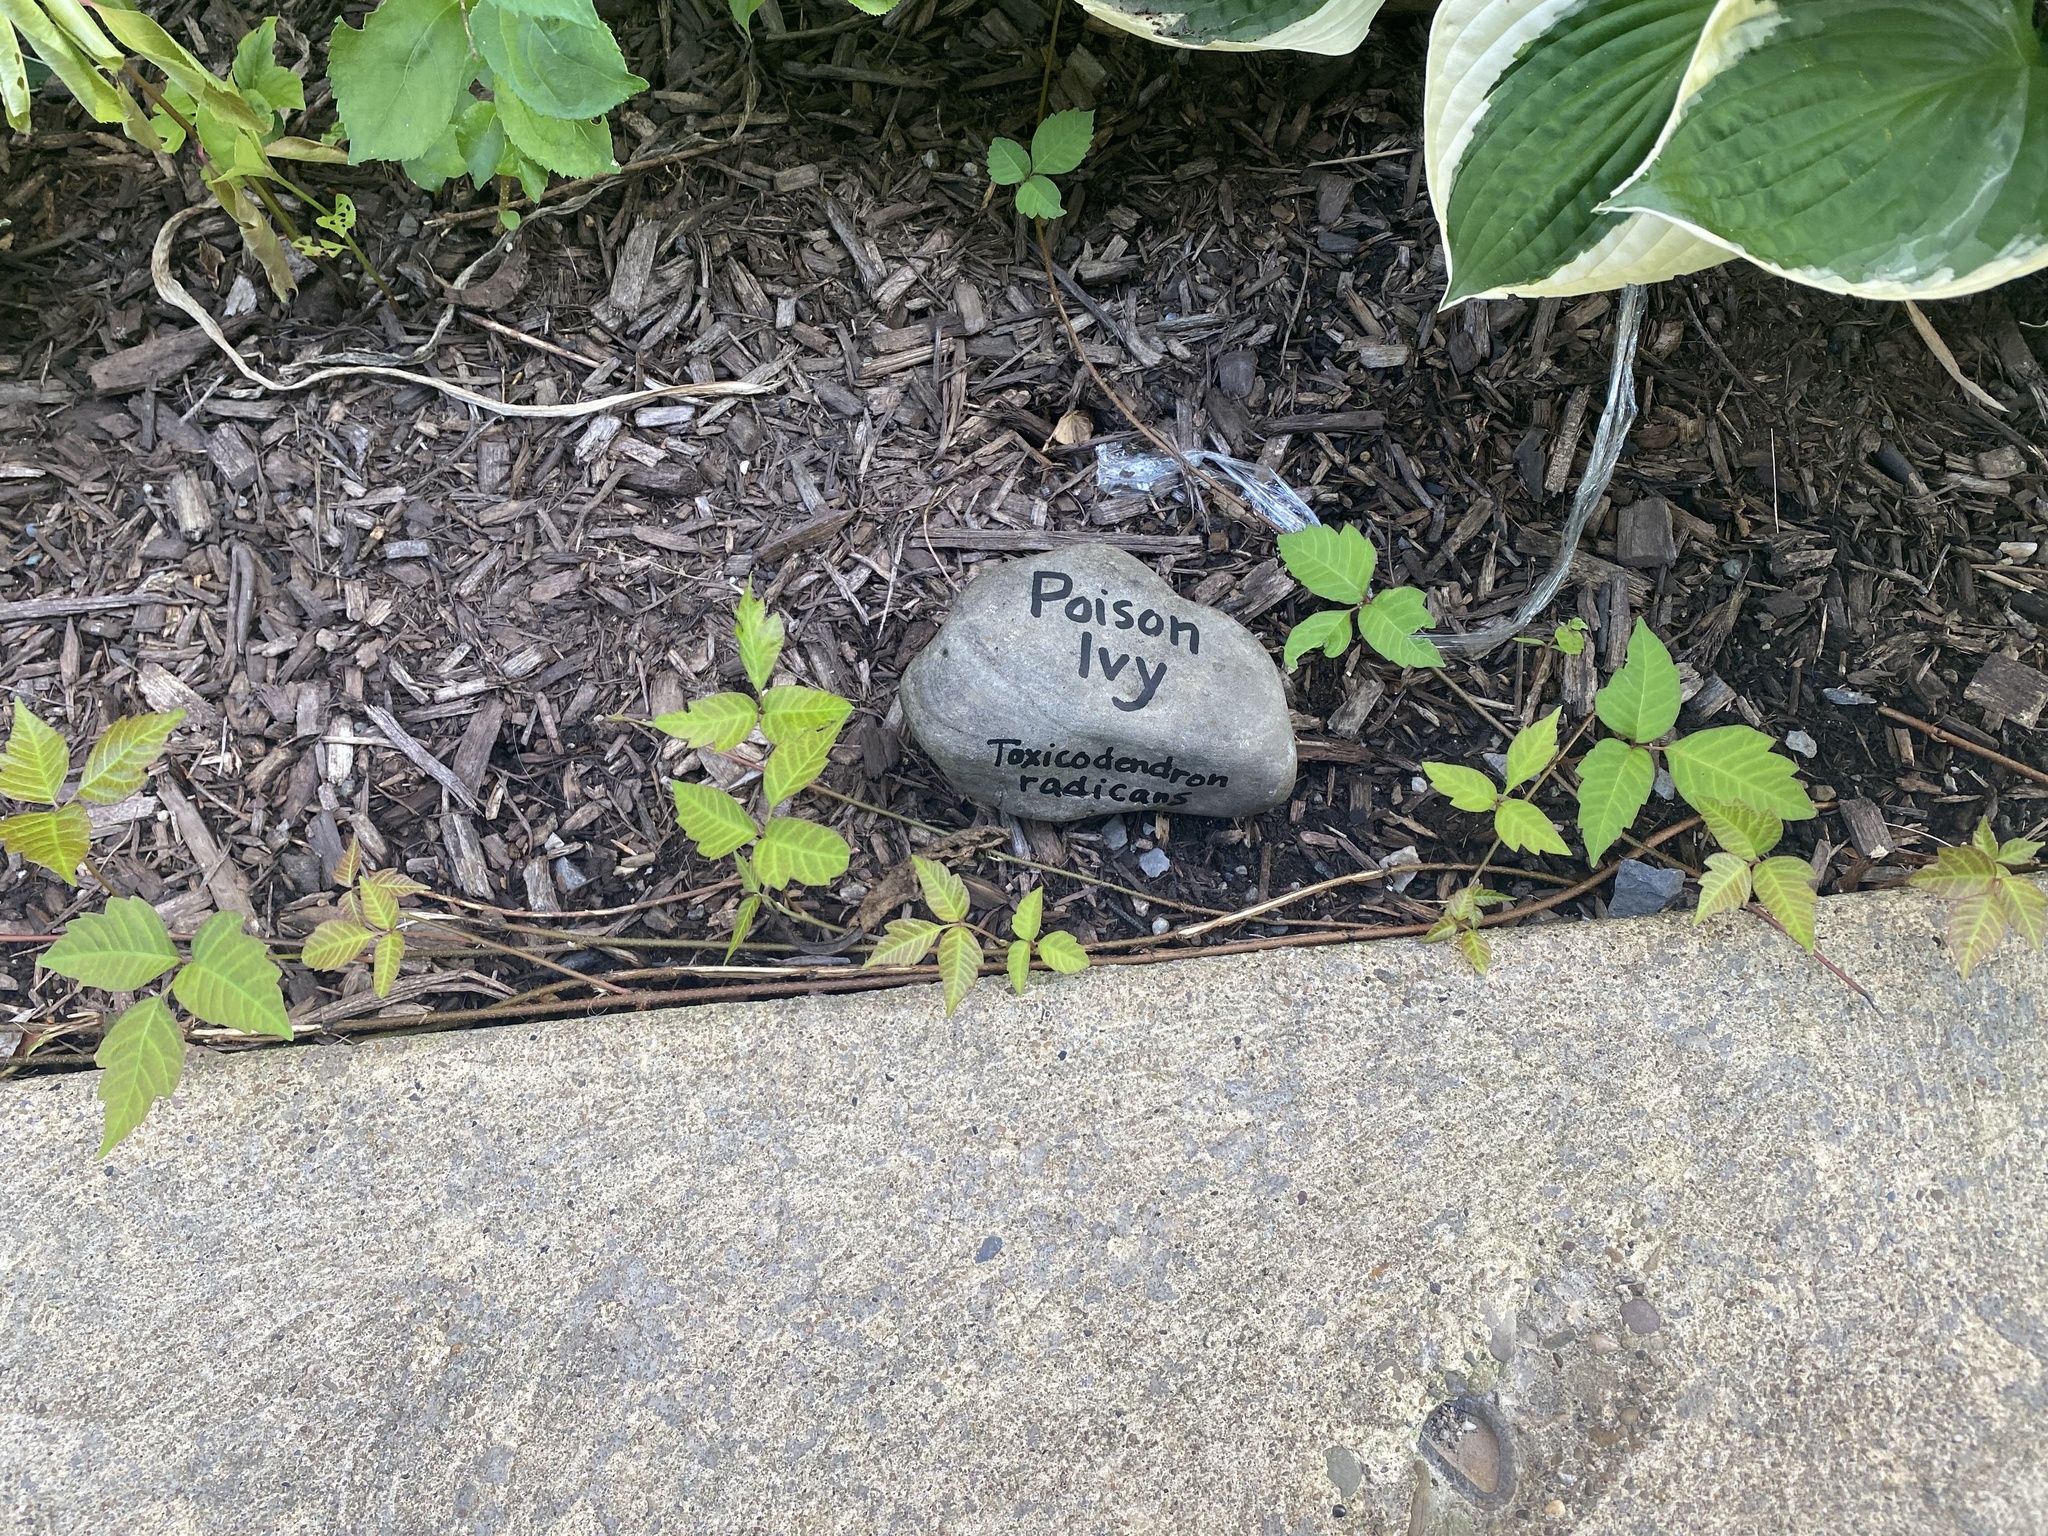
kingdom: Plantae
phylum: Tracheophyta
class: Magnoliopsida
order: Sapindales
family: Anacardiaceae
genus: Toxicodendron
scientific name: Toxicodendron radicans
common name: Poison ivy
